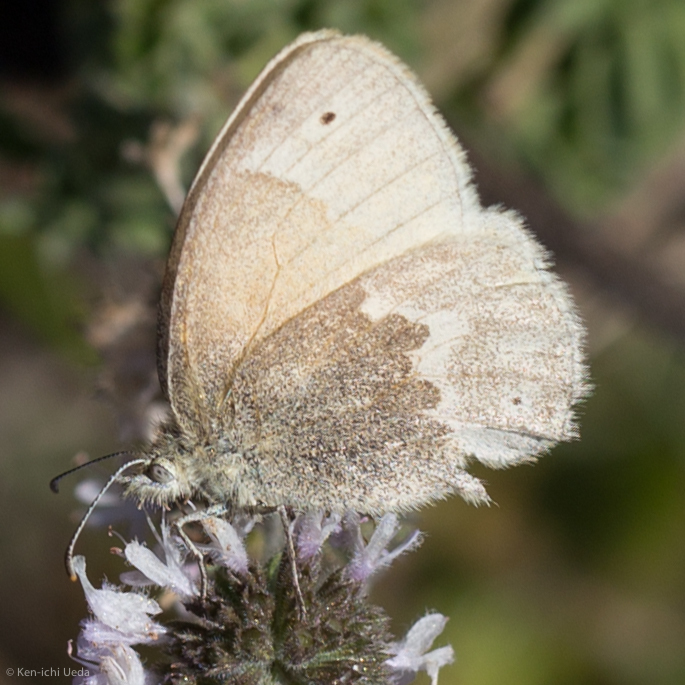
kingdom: Animalia
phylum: Arthropoda
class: Insecta
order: Lepidoptera
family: Nymphalidae
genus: Coenonympha
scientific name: Coenonympha california
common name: Common ringlet
